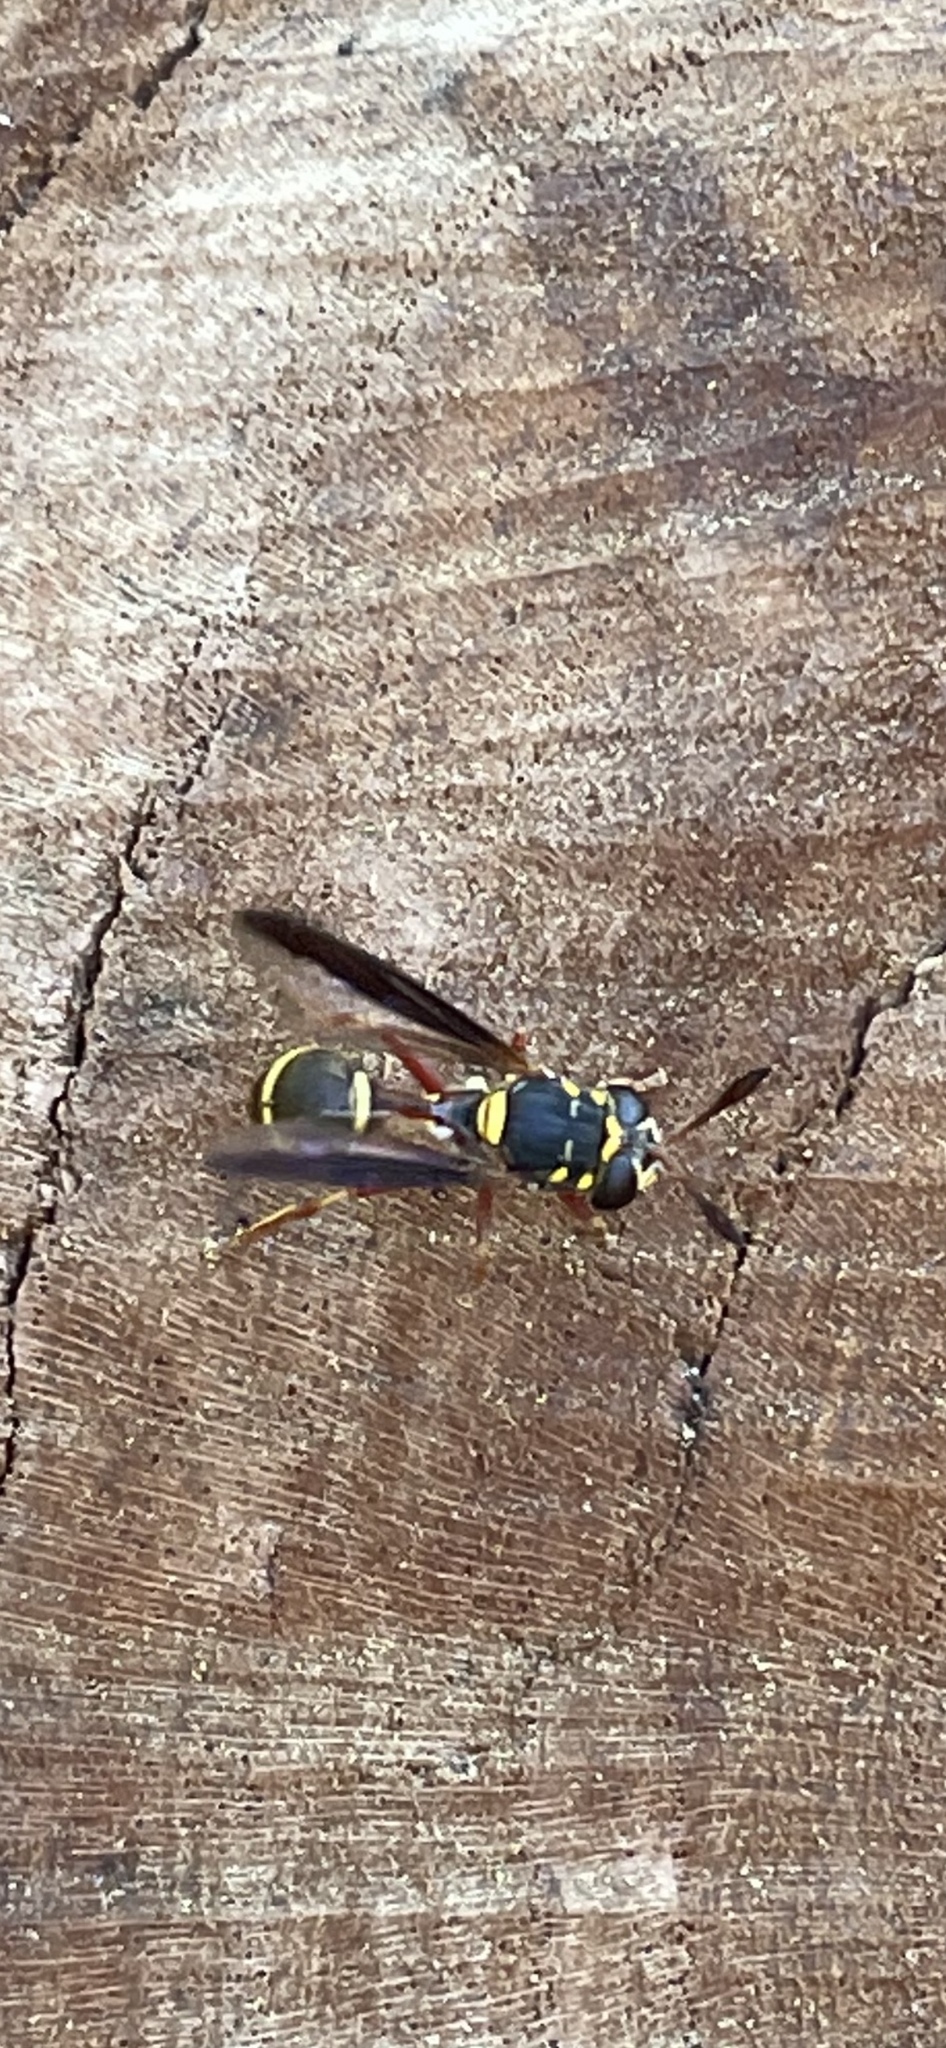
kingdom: Animalia
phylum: Arthropoda
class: Insecta
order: Diptera
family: Syrphidae
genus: Polybiomyia
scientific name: Polybiomyia bellardii
